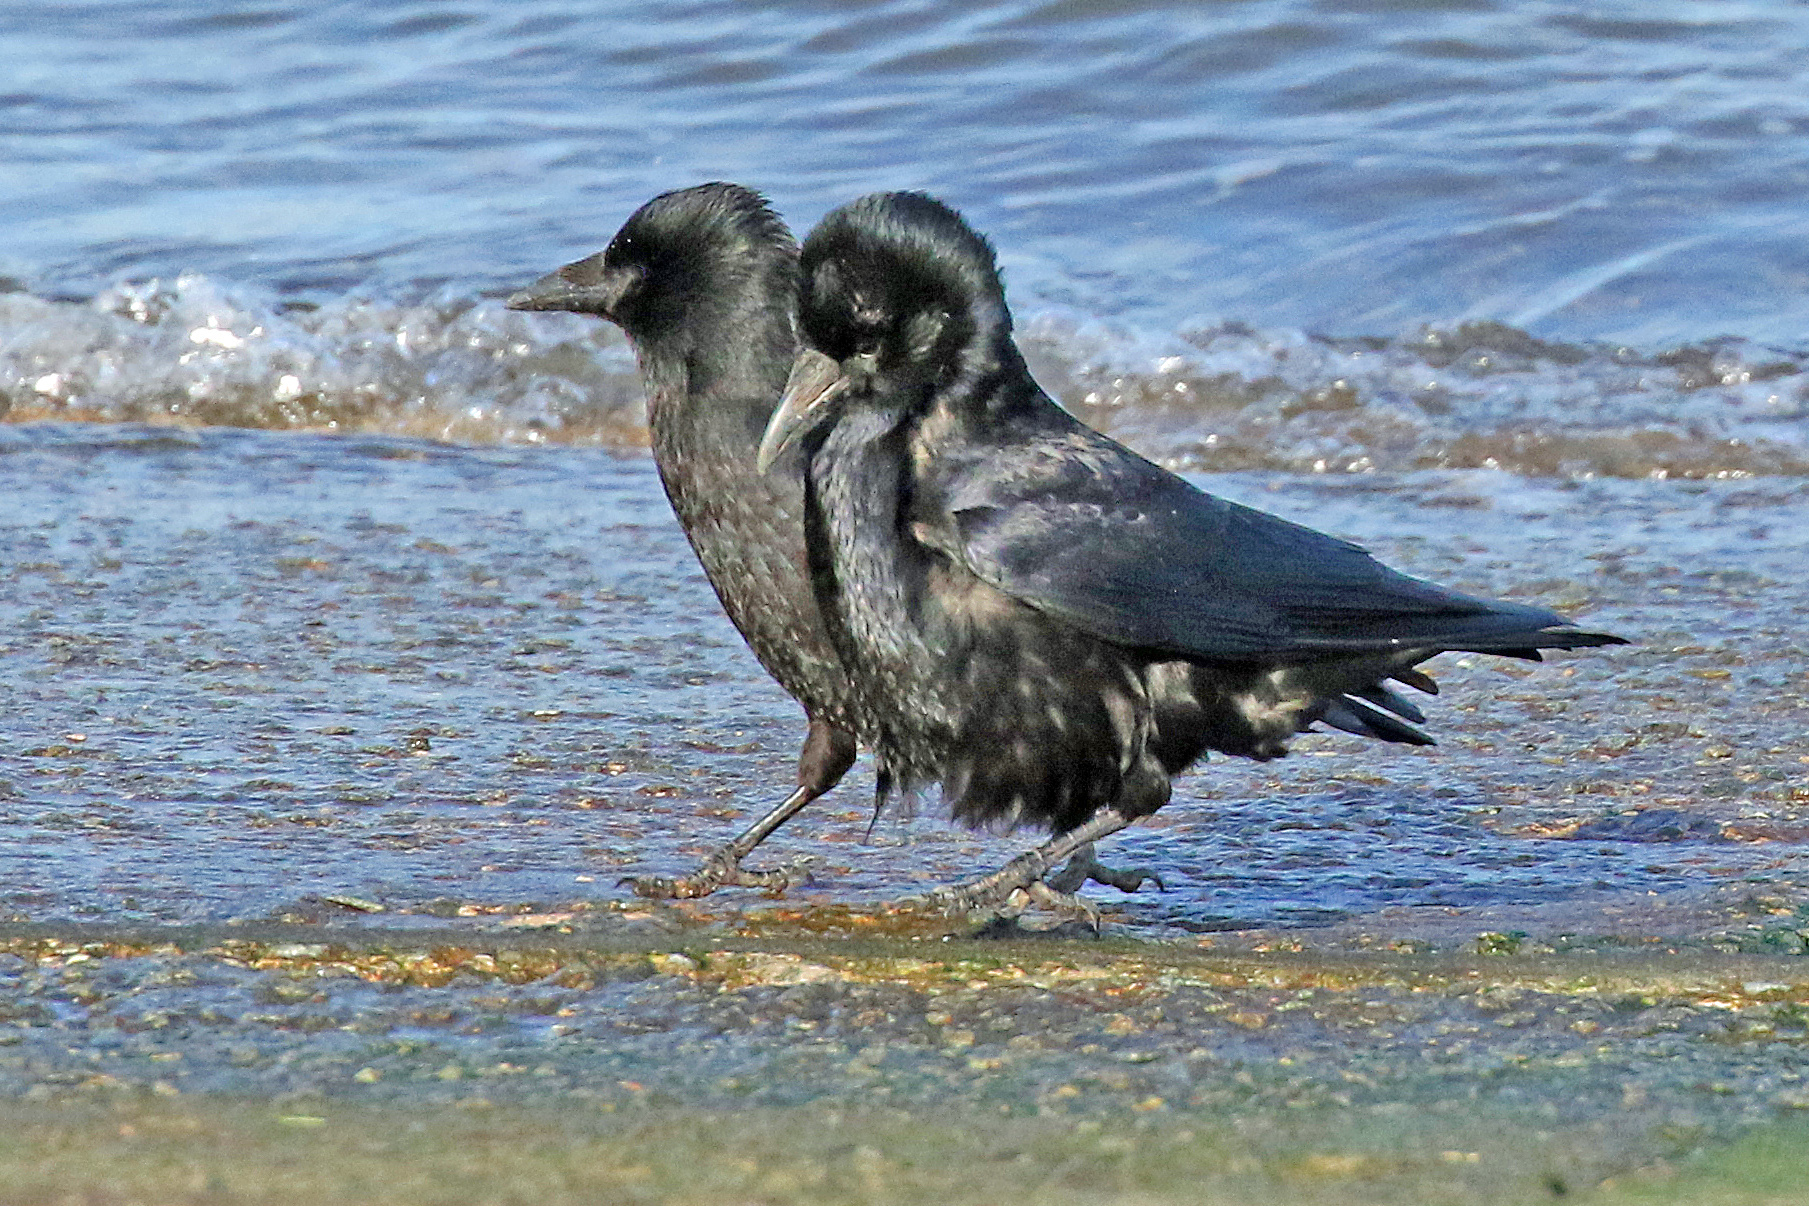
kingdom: Animalia
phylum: Chordata
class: Aves
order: Passeriformes
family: Corvidae
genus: Corvus
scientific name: Corvus corone
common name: Carrion crow
